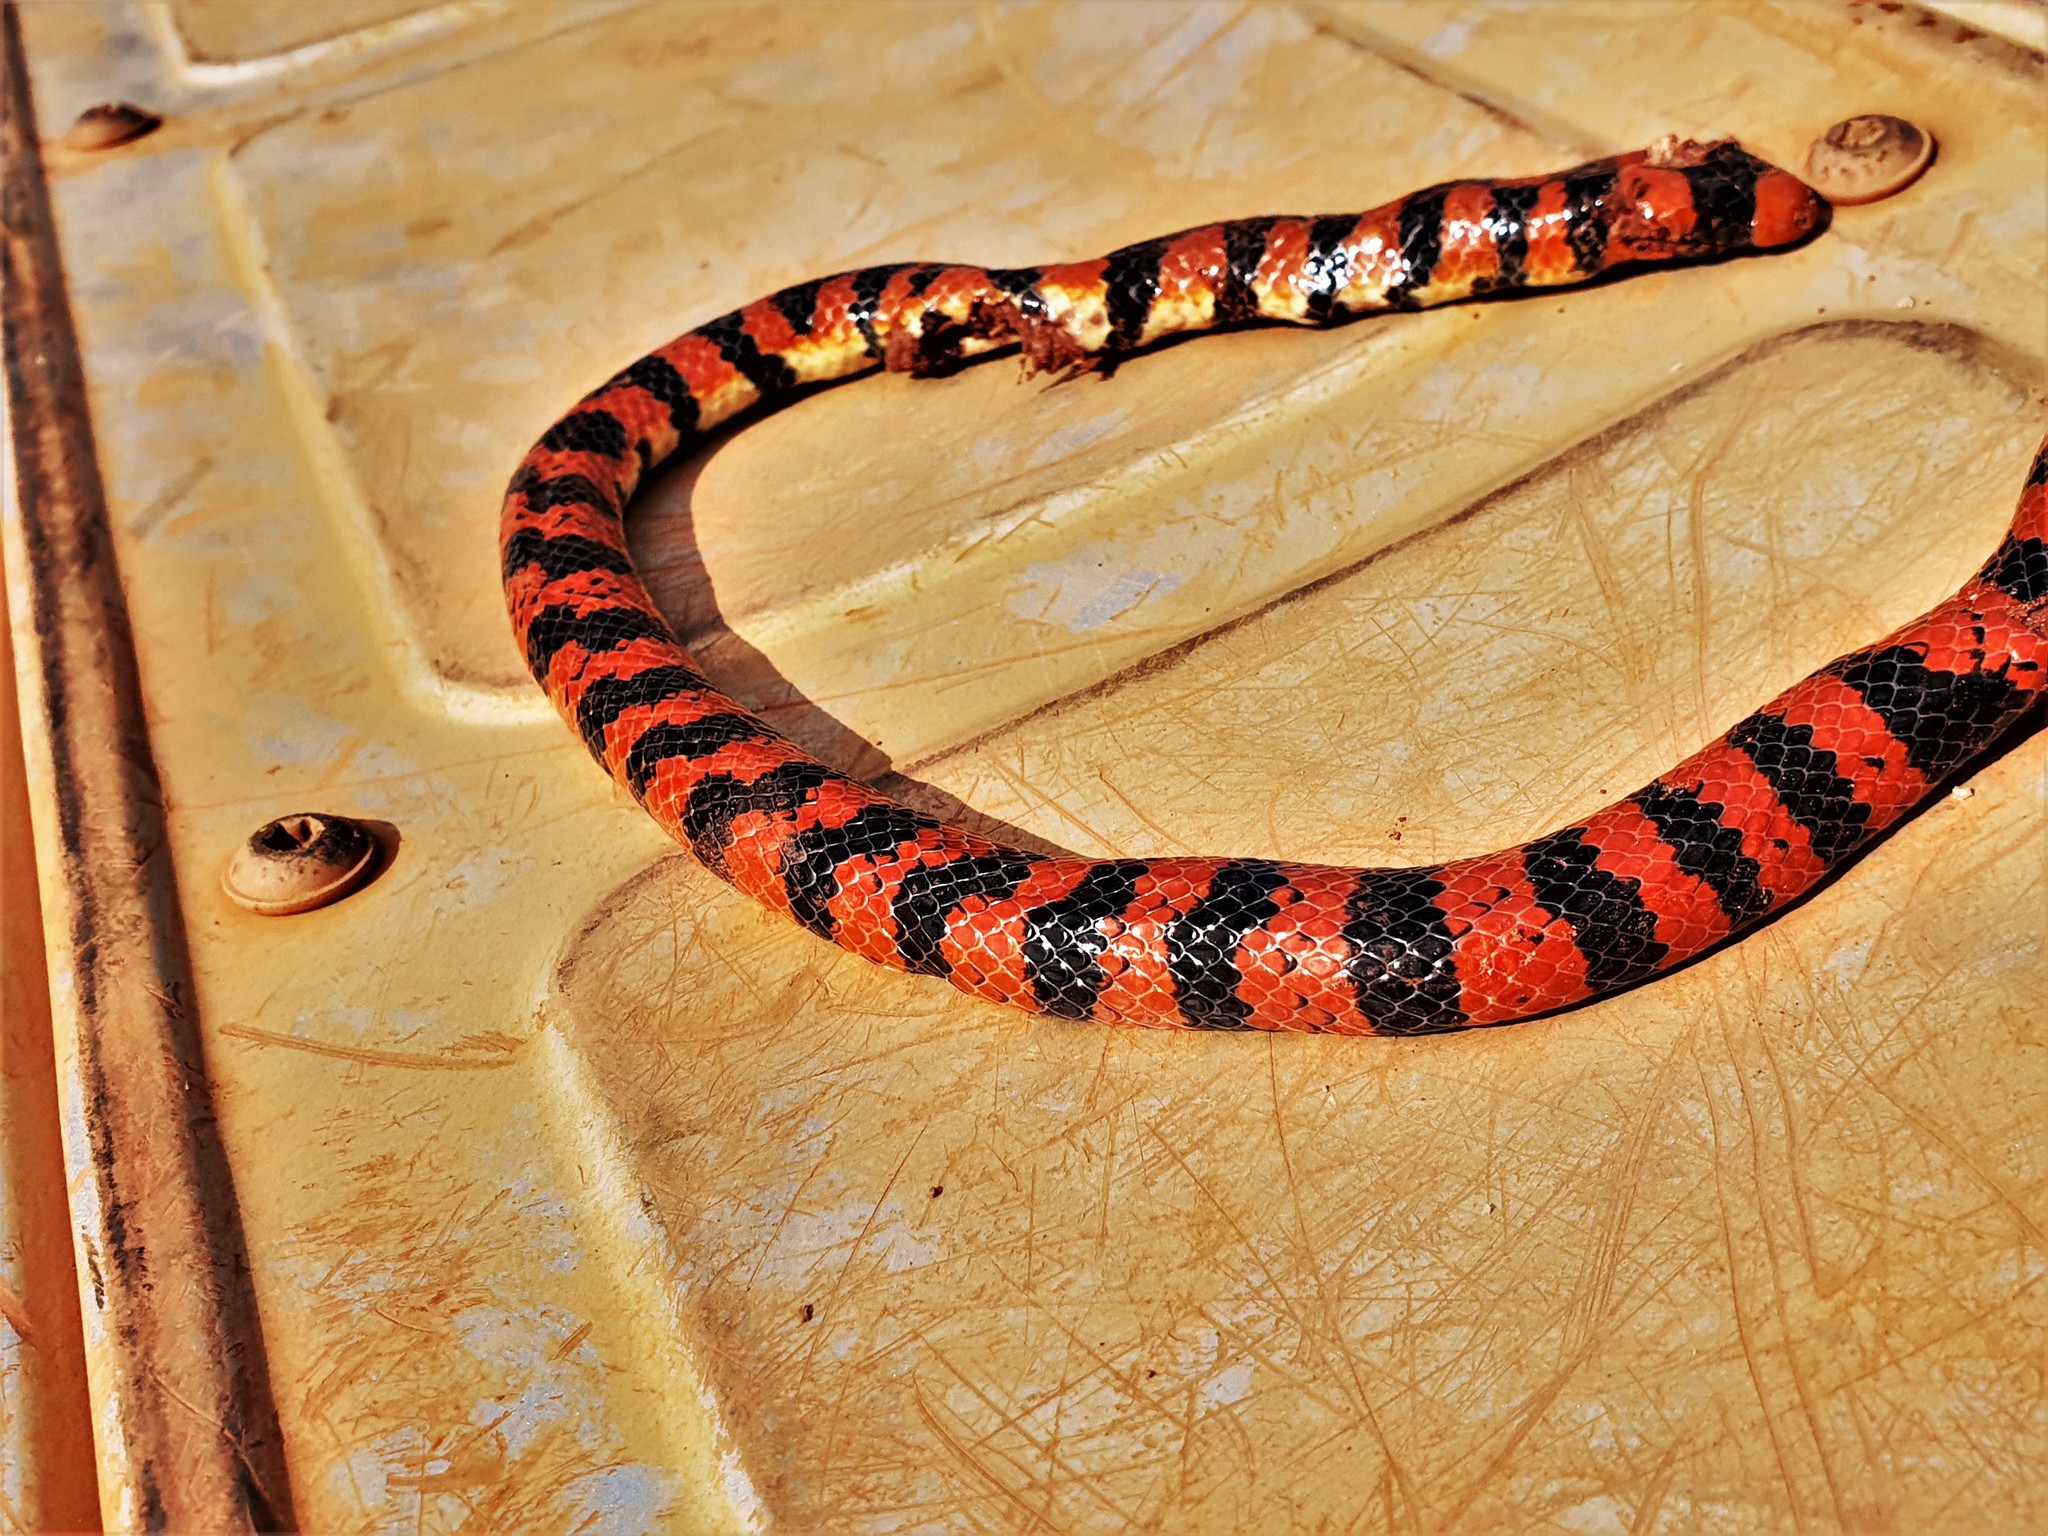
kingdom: Animalia
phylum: Chordata
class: Squamata
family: Aniliidae
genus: Anilius
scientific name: Anilius scytale
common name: Coral pipe snakes
